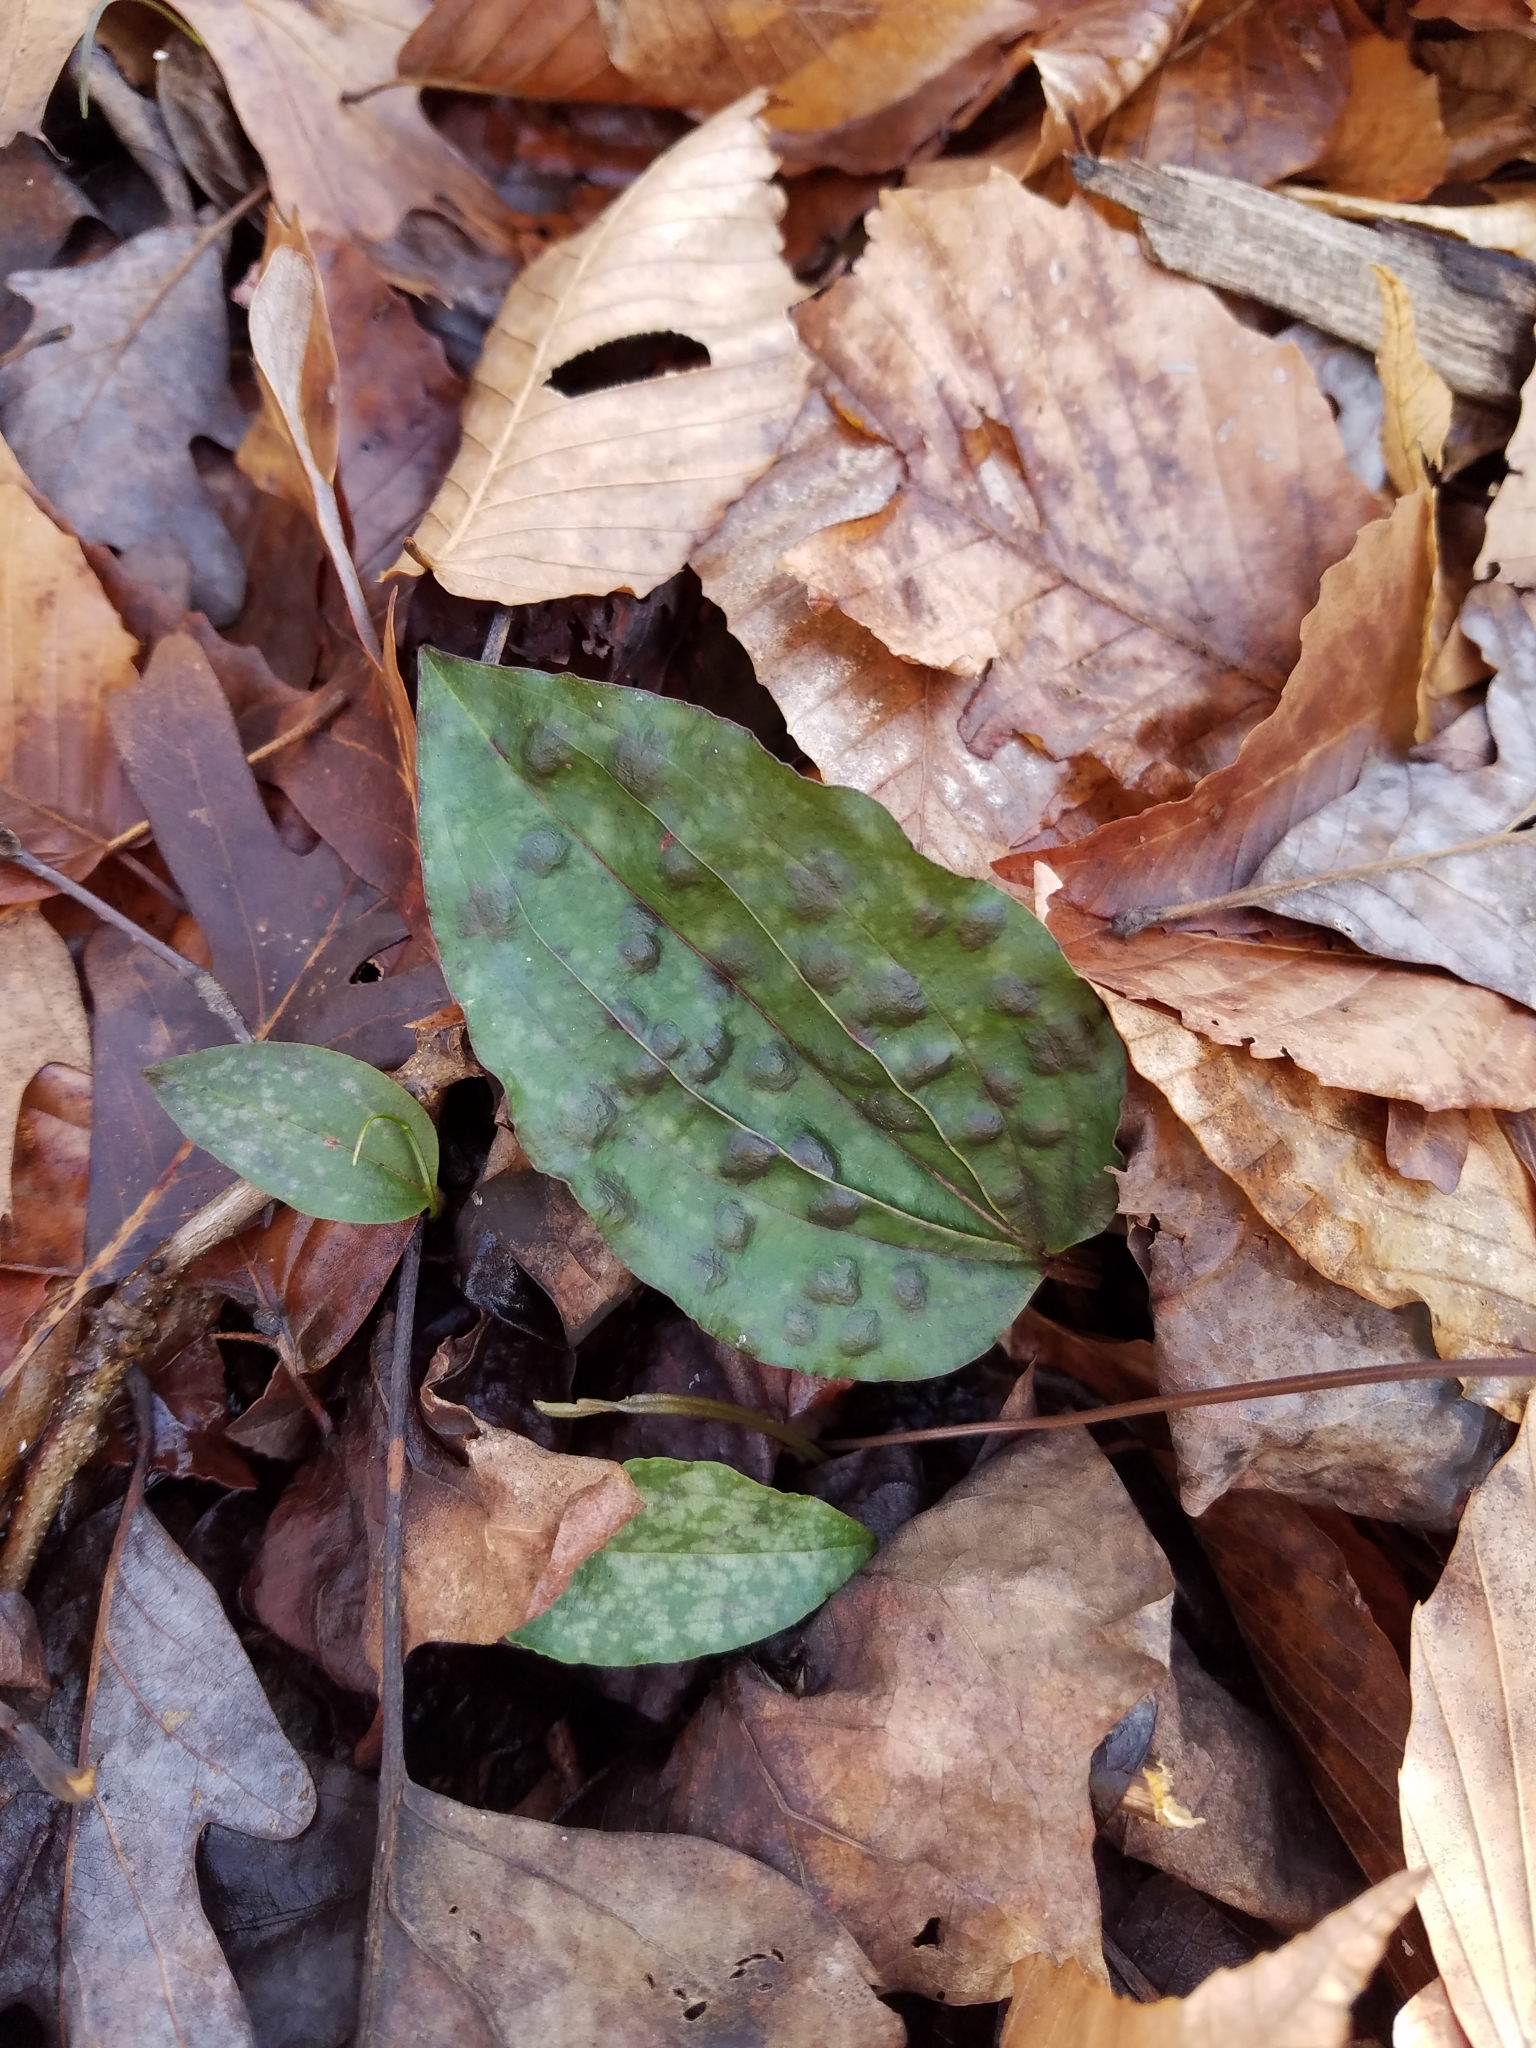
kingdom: Plantae
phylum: Tracheophyta
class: Liliopsida
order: Asparagales
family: Orchidaceae
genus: Tipularia
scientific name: Tipularia discolor
